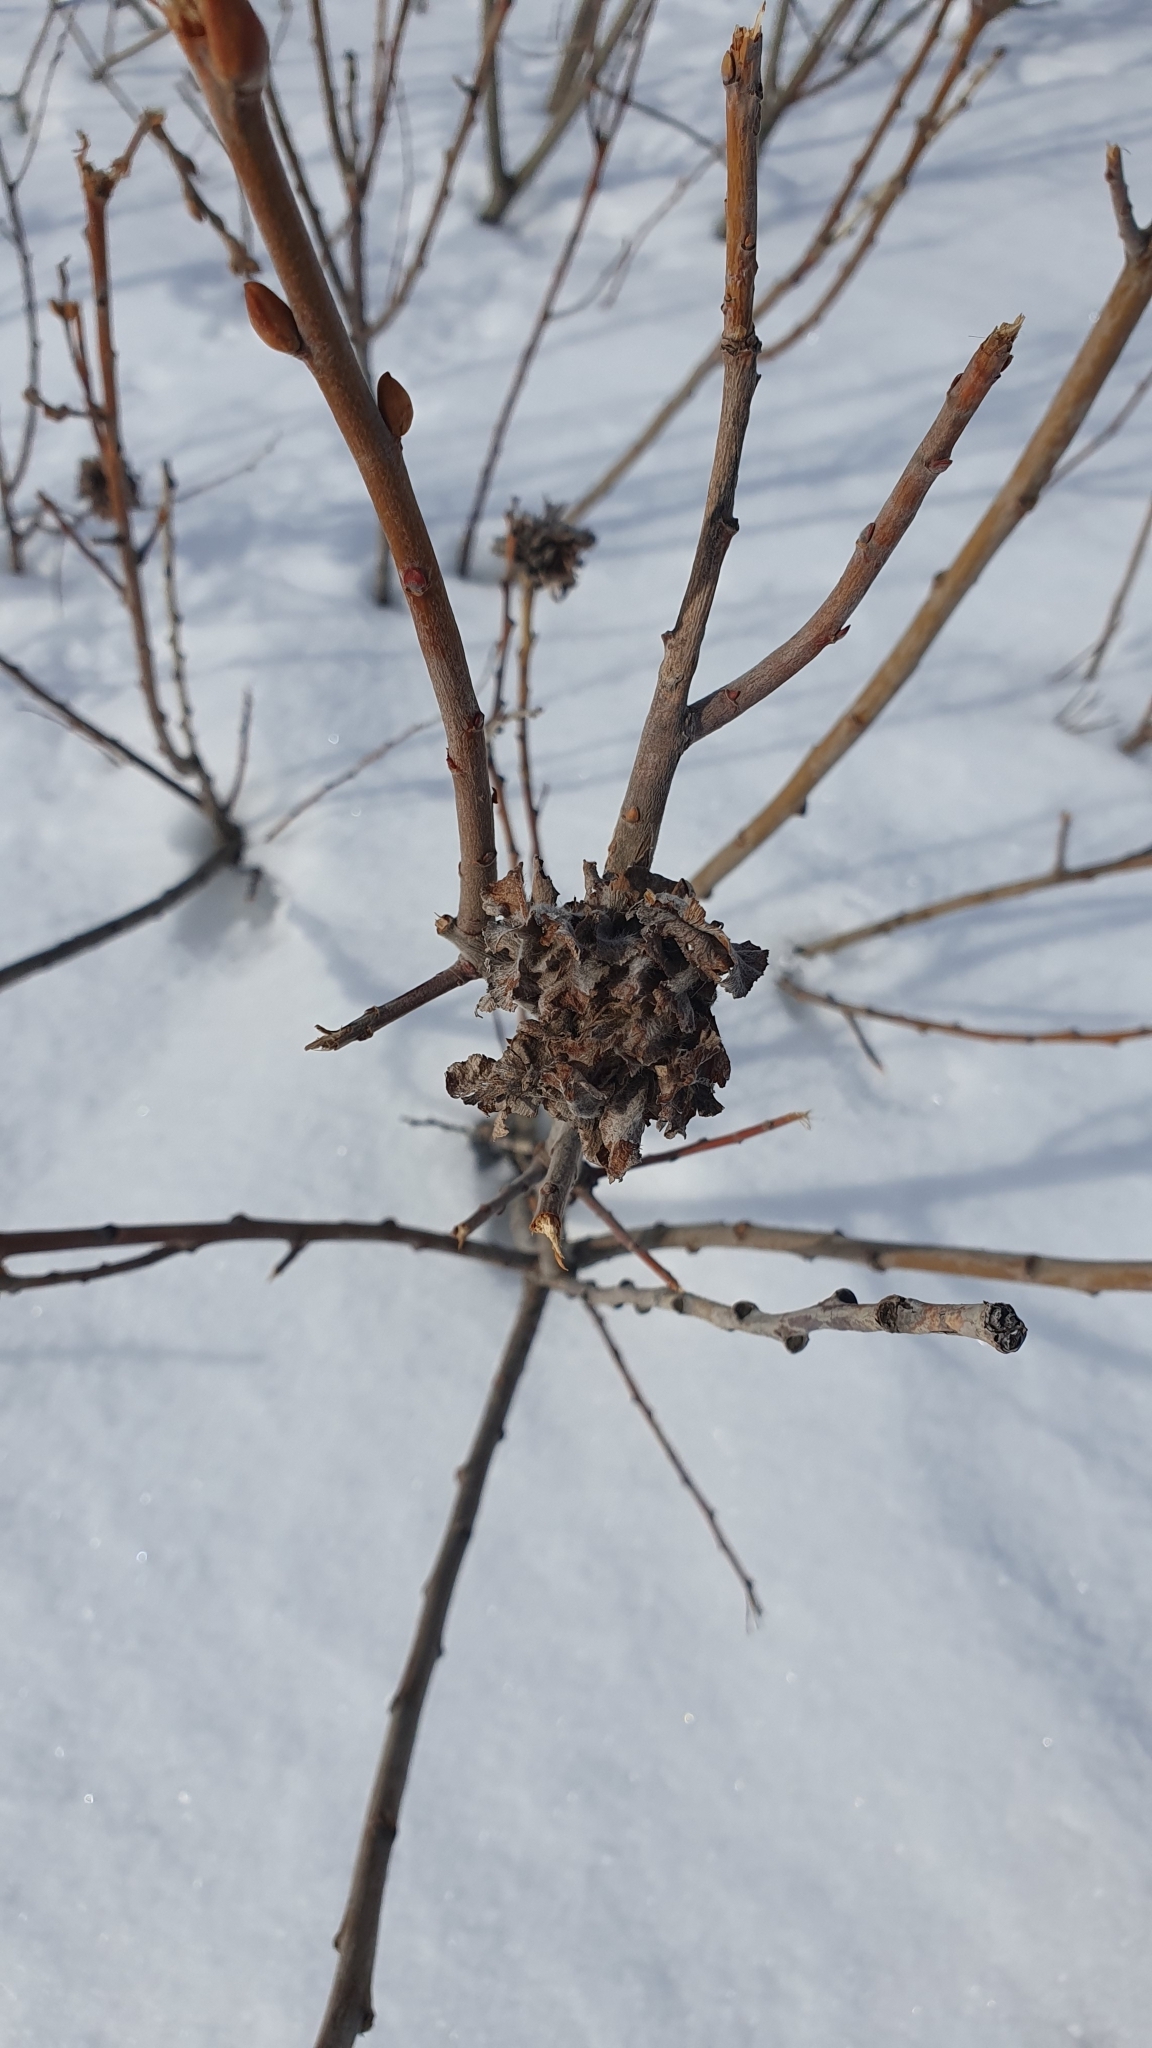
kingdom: Animalia
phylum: Arthropoda
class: Insecta
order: Diptera
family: Cecidomyiidae
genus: Rabdophaga
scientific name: Rabdophaga rosaria
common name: Willow rose gall midge
